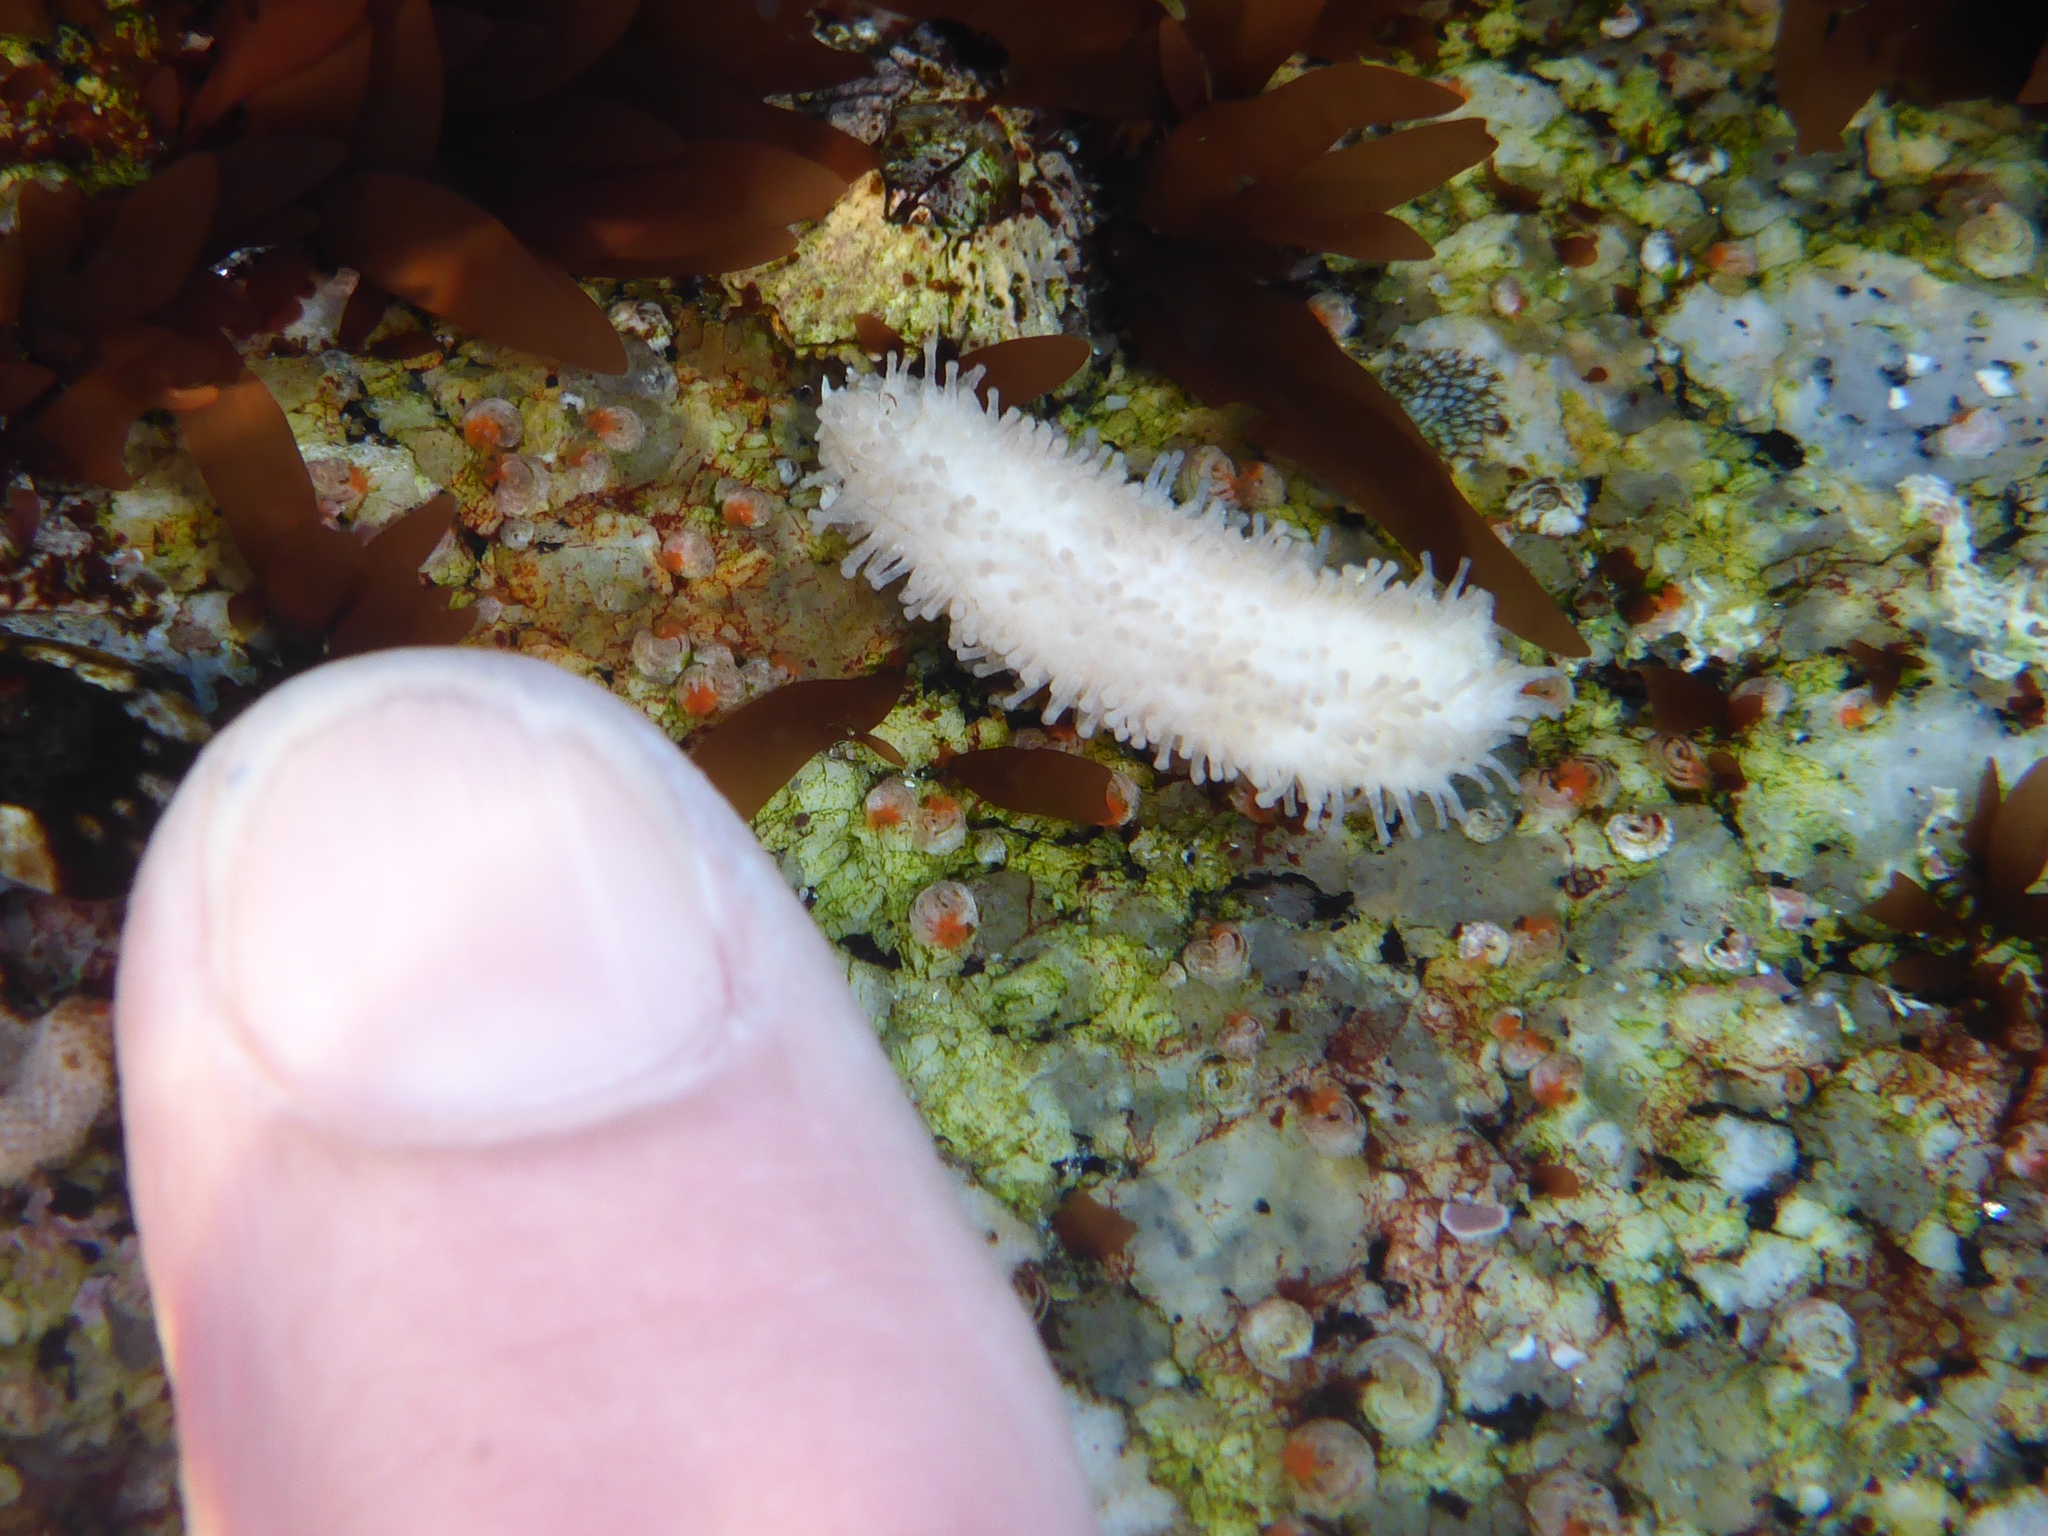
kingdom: Animalia
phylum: Echinodermata
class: Holothuroidea
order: Dendrochirotida
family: Sclerodactylidae
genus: Eupentacta
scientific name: Eupentacta quinquesemita
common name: Pentamerous sea cucumber
